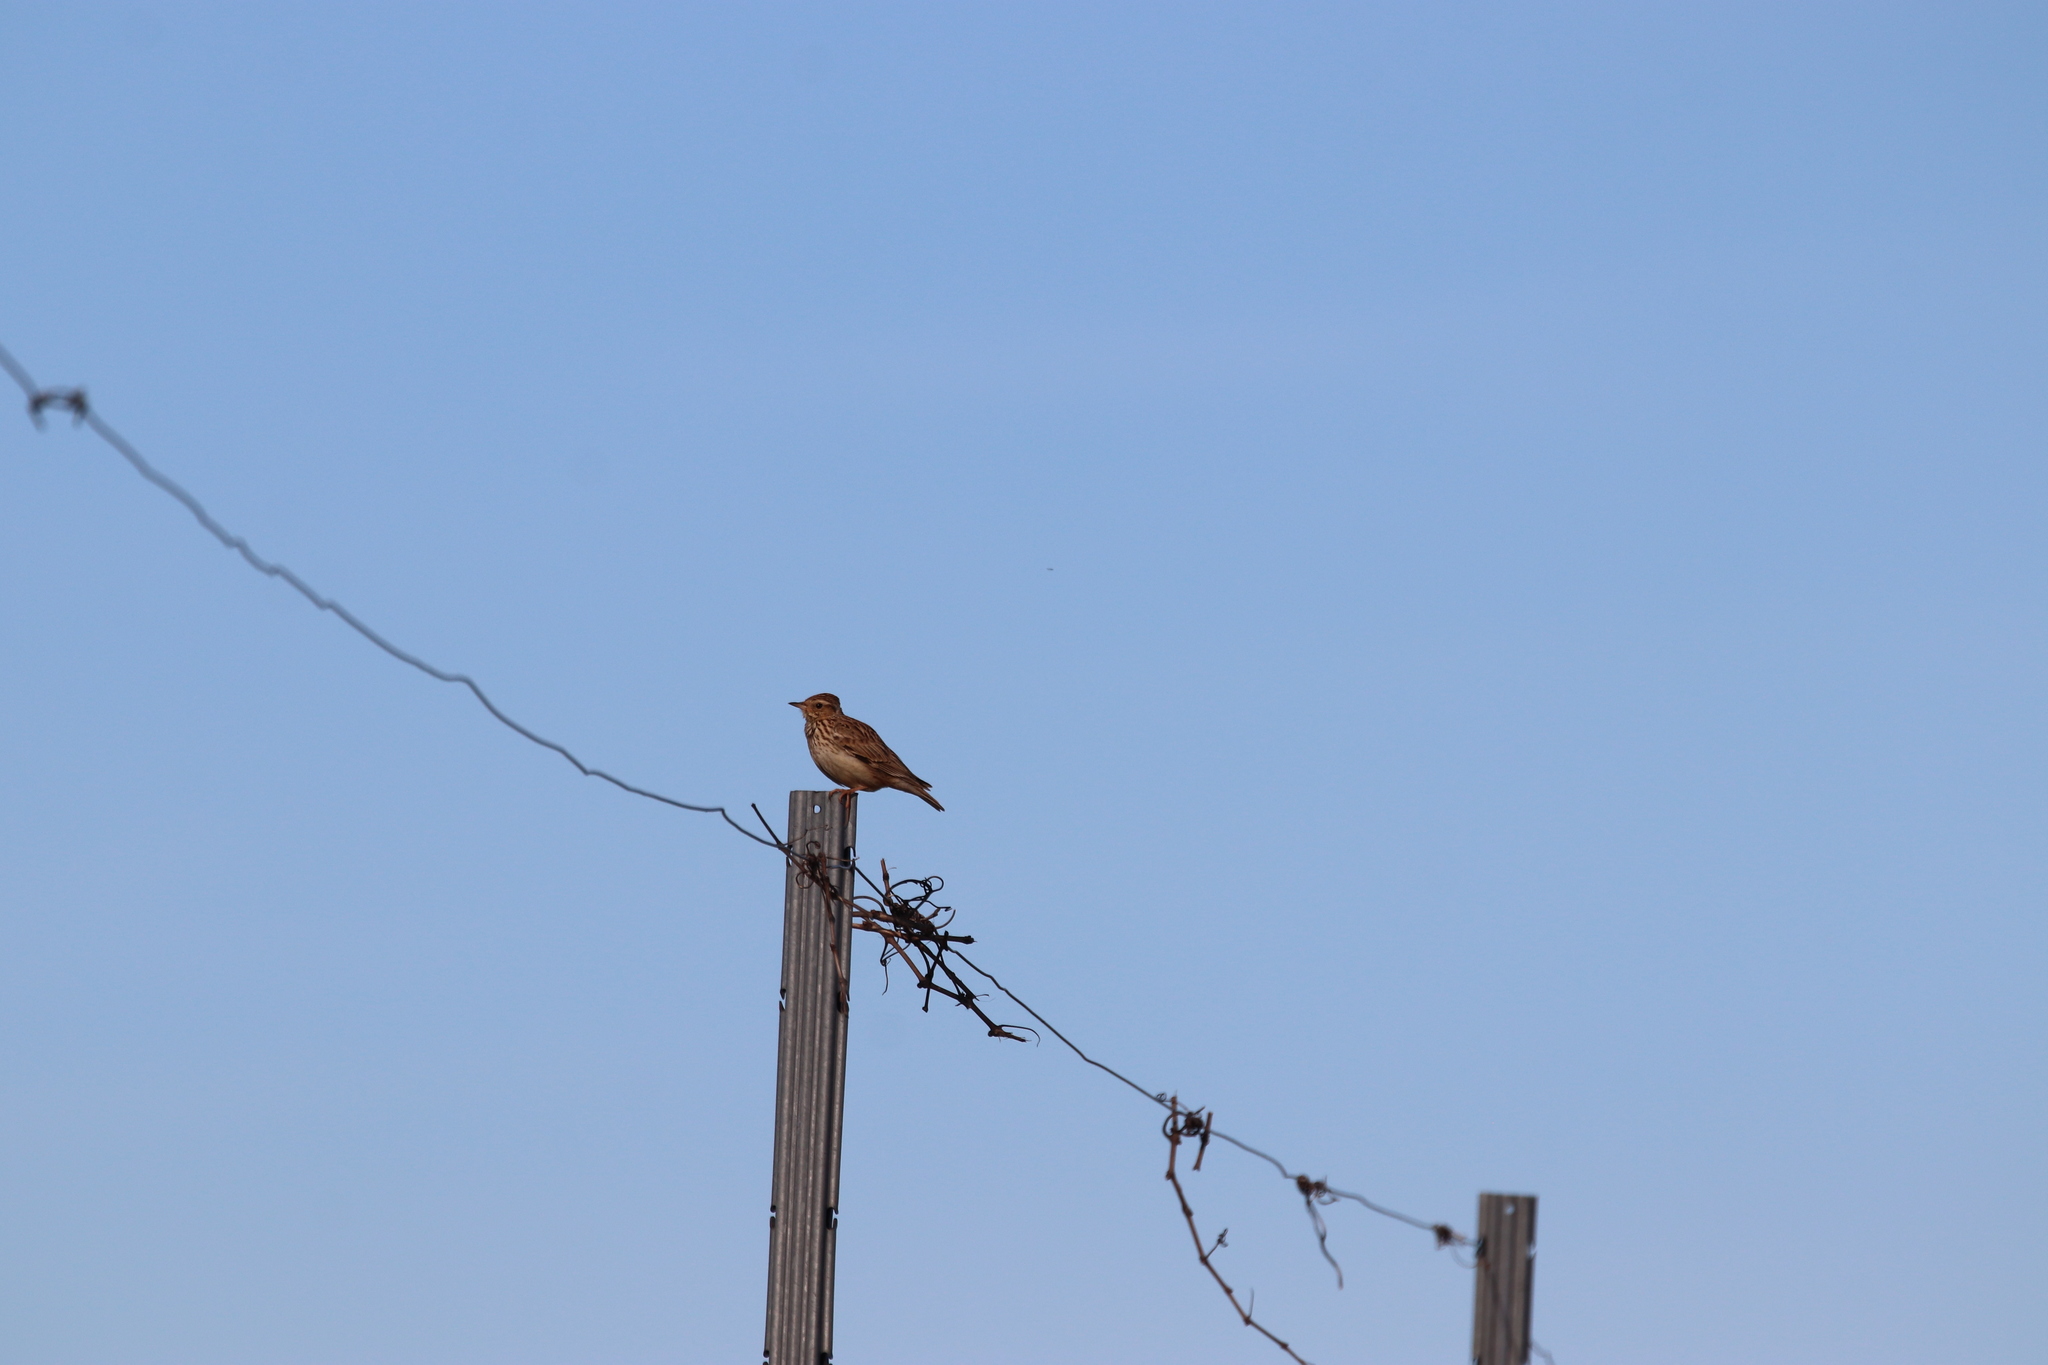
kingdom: Animalia
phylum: Chordata
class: Aves
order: Passeriformes
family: Alaudidae
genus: Lullula
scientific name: Lullula arborea
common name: Woodlark
